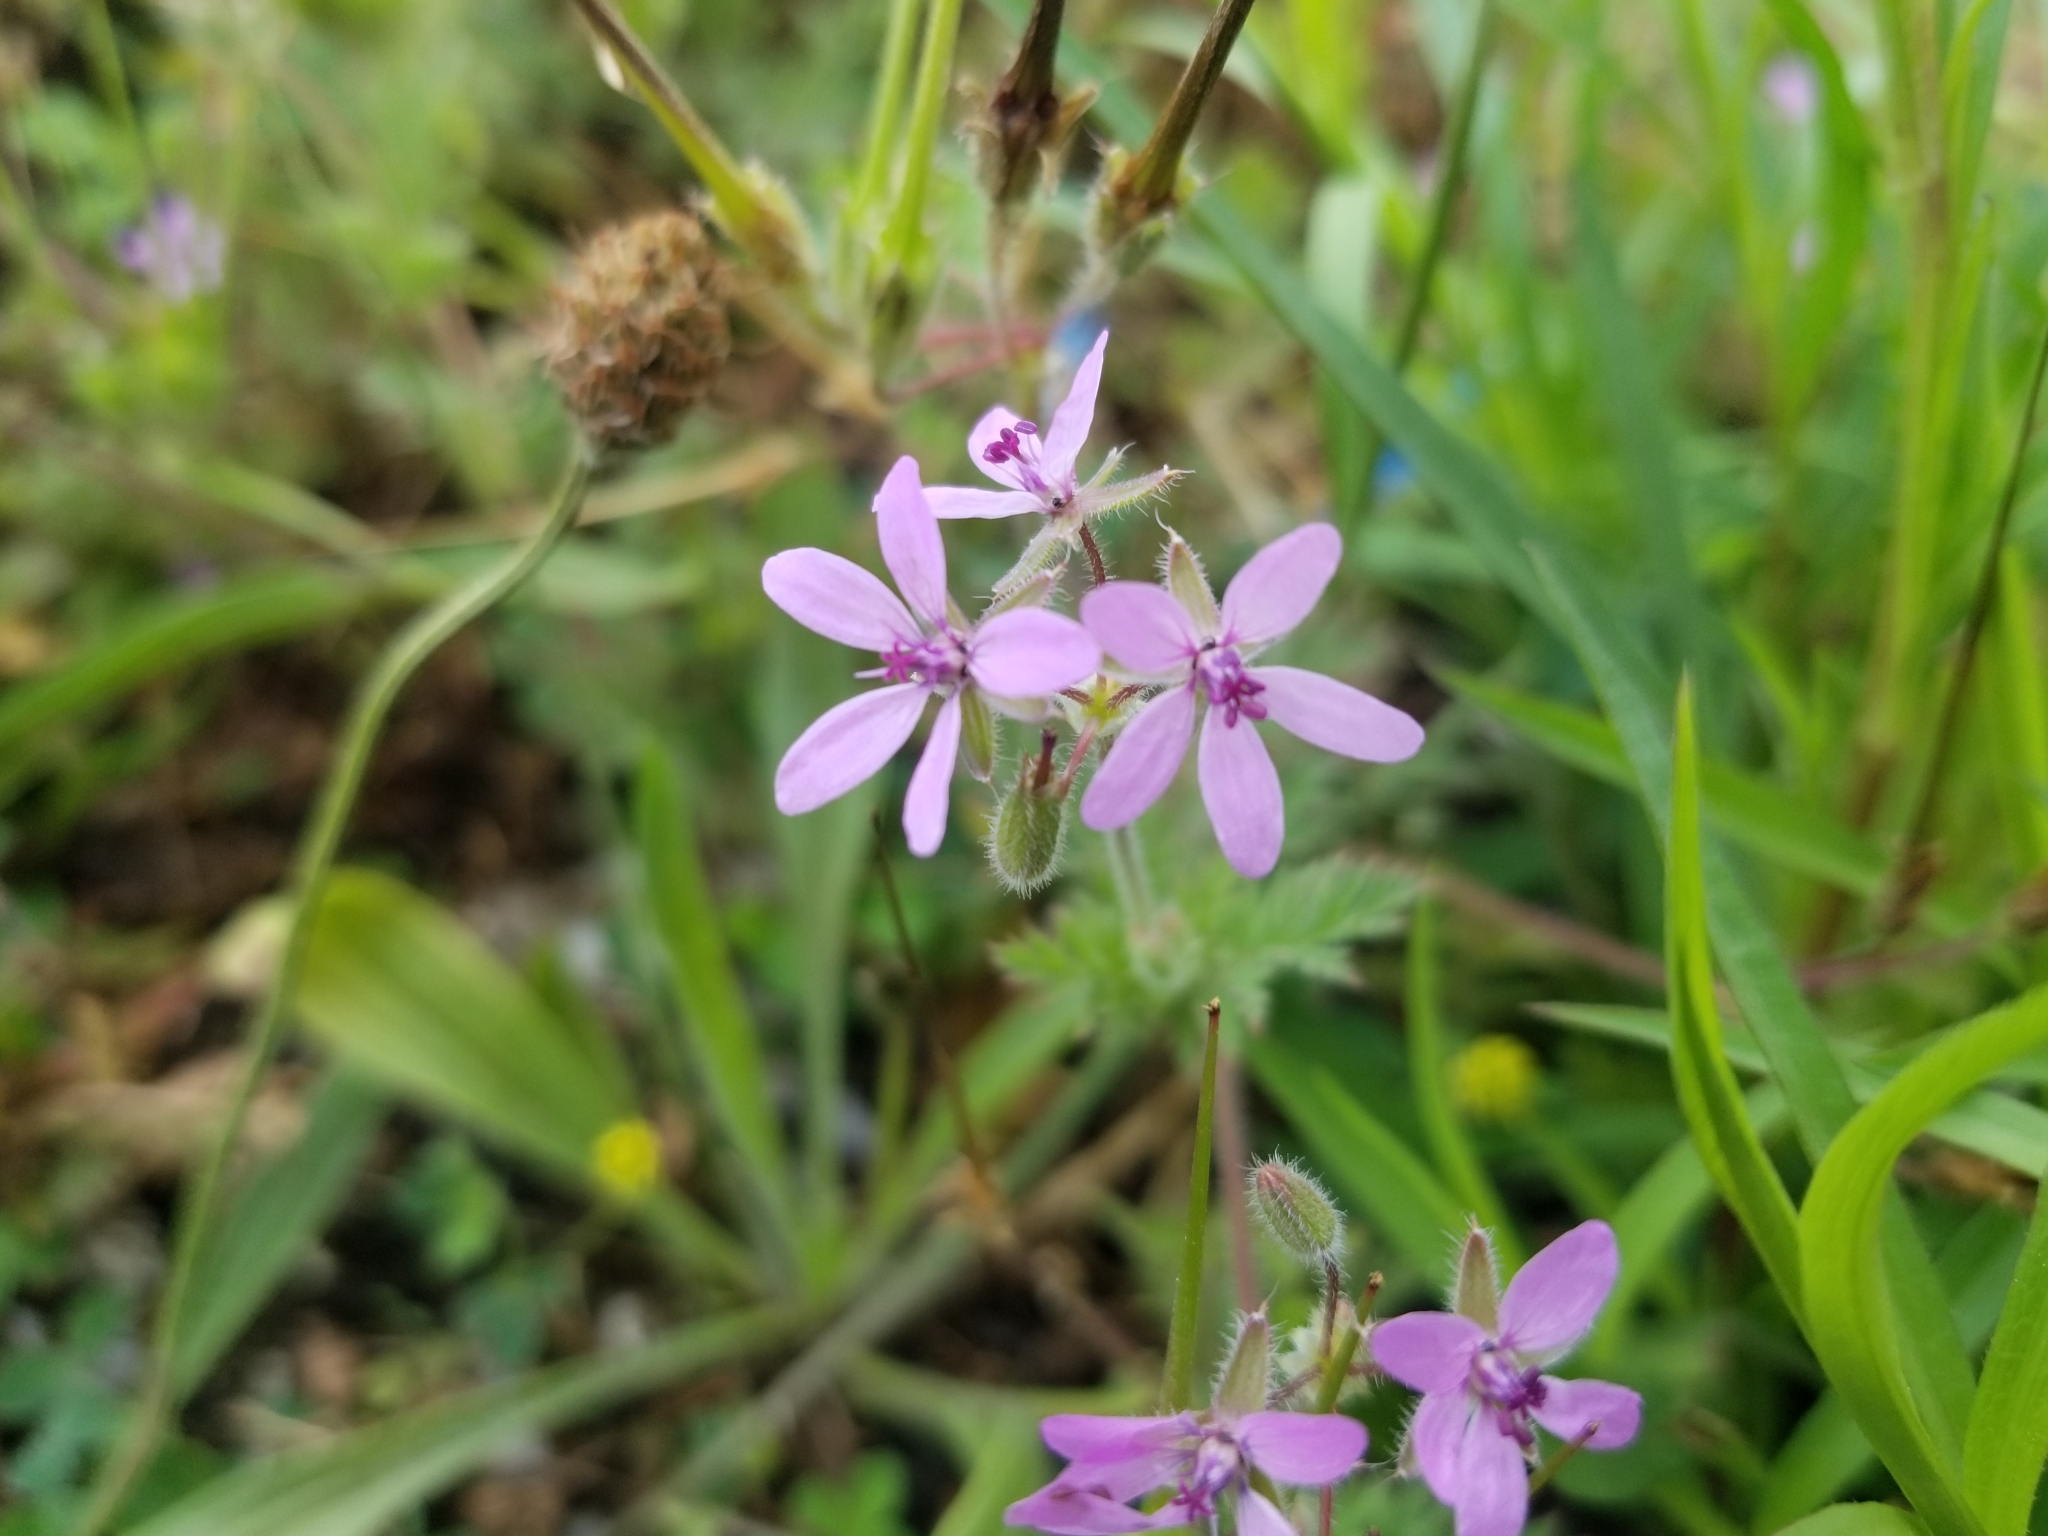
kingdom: Plantae
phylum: Tracheophyta
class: Magnoliopsida
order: Geraniales
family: Geraniaceae
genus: Erodium
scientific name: Erodium cicutarium
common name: Common stork's-bill
